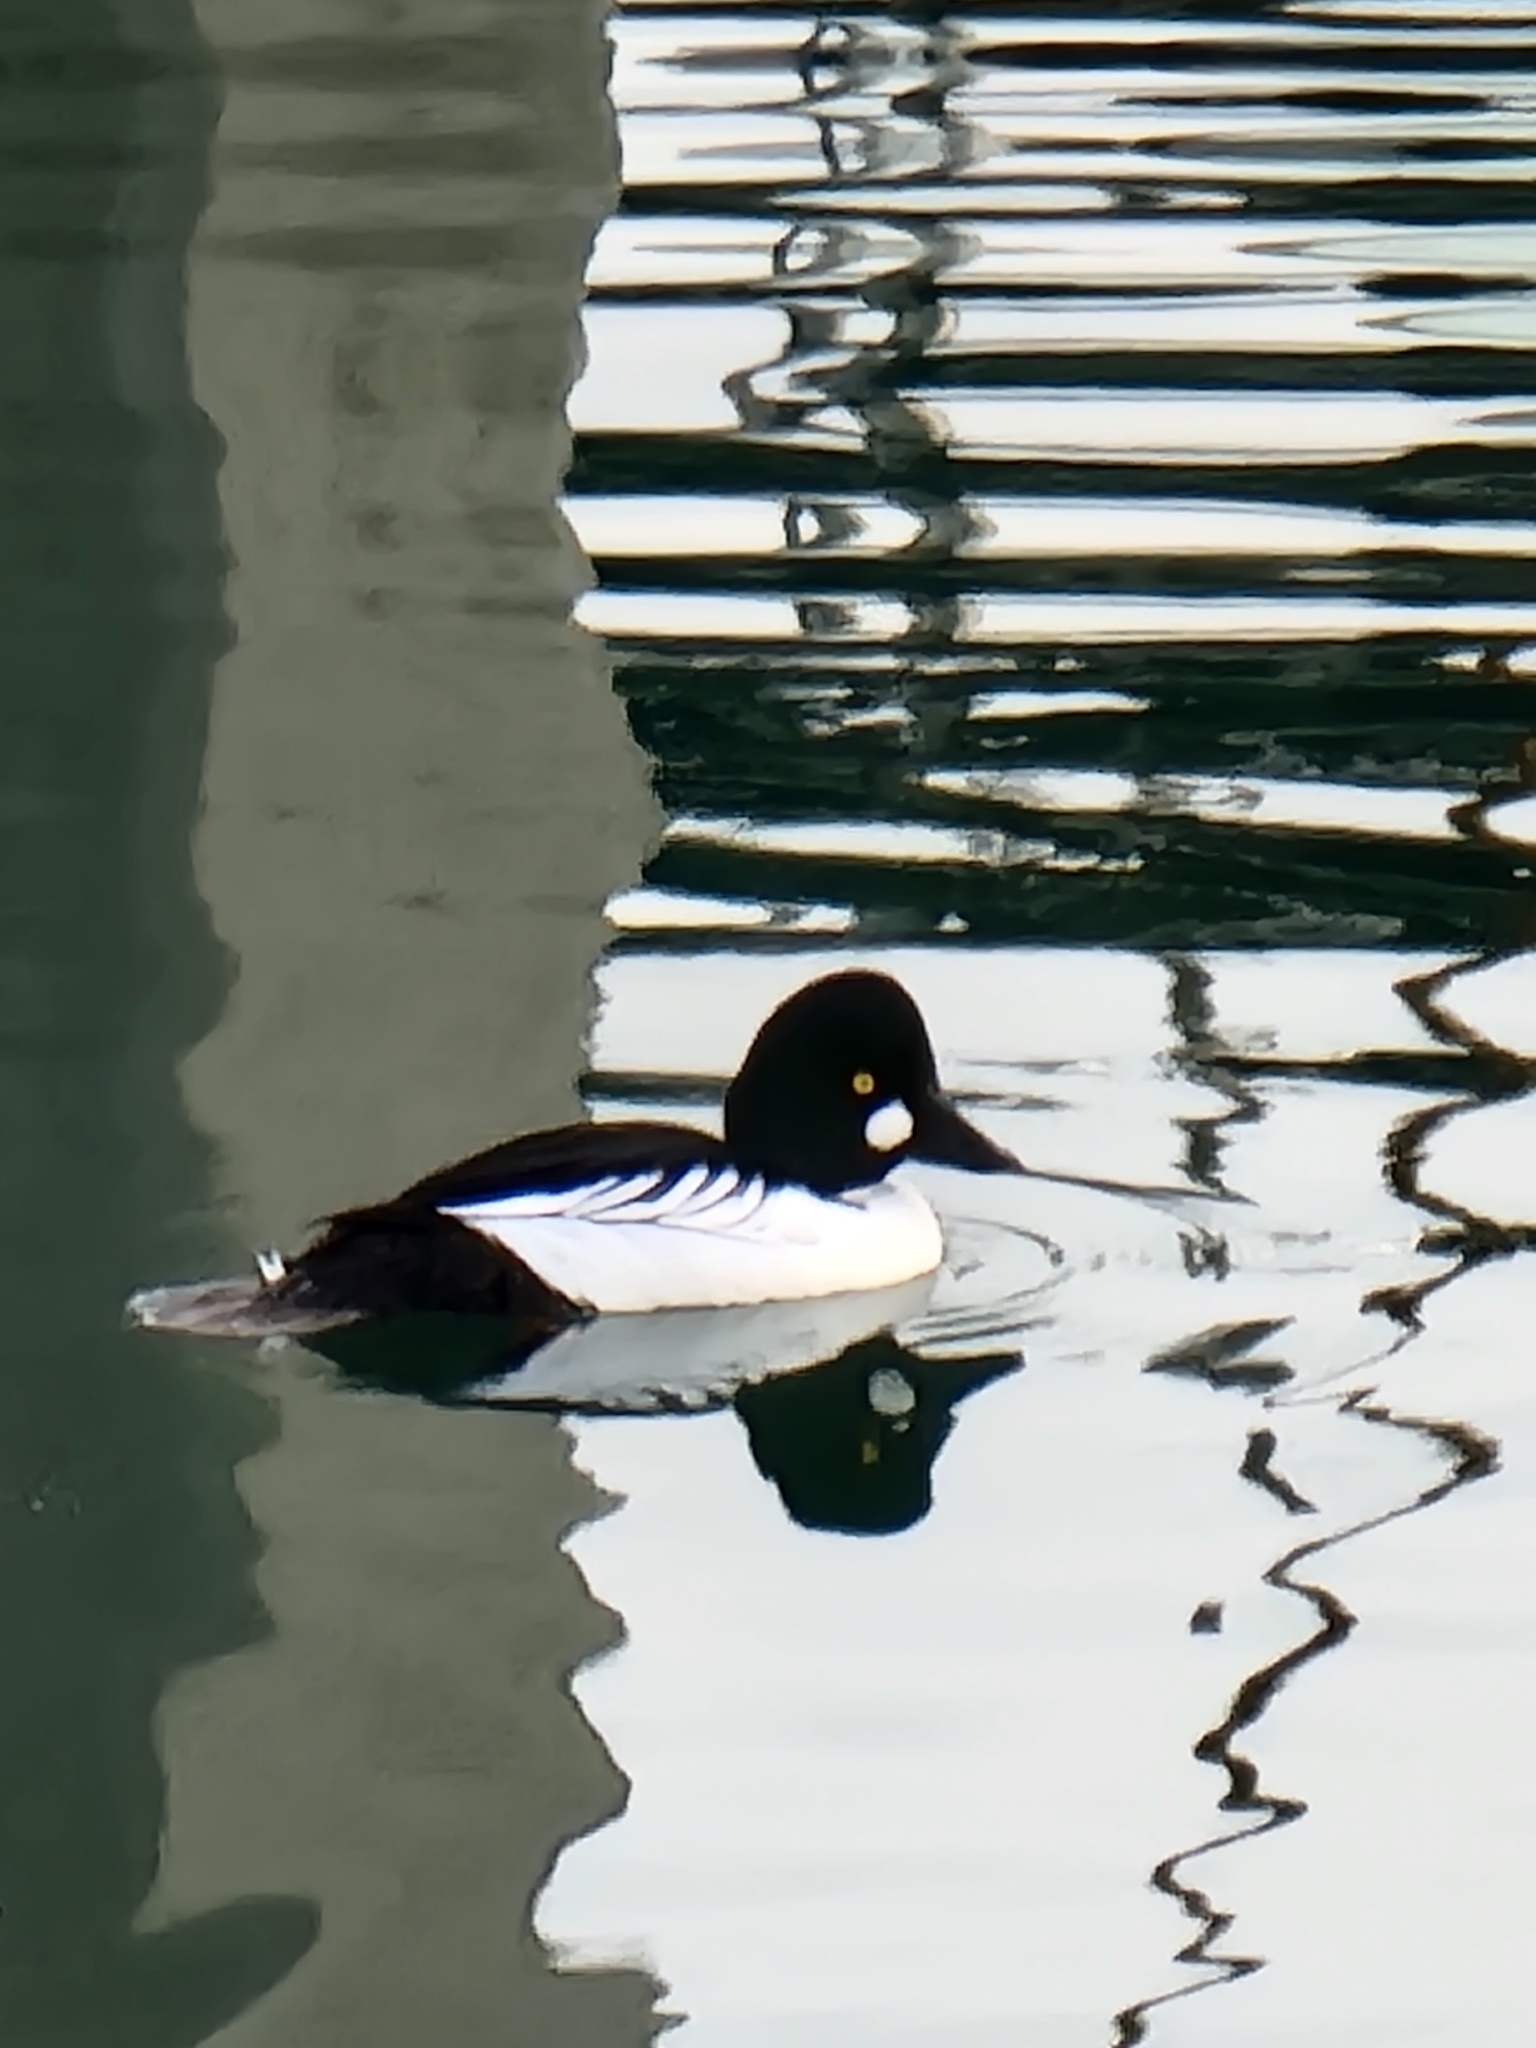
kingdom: Animalia
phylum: Chordata
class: Aves
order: Anseriformes
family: Anatidae
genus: Bucephala
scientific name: Bucephala clangula
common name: Common goldeneye
